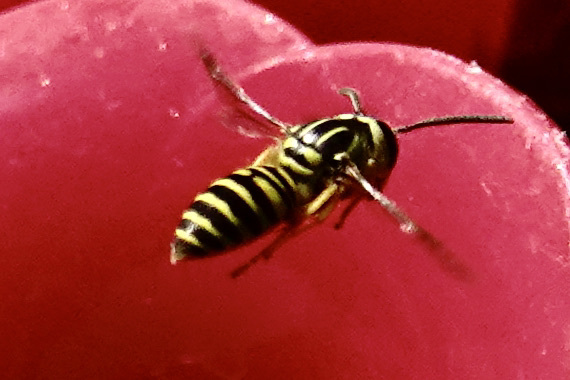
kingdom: Animalia
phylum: Arthropoda
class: Insecta
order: Hymenoptera
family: Vespidae
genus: Vespula
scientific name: Vespula squamosa
